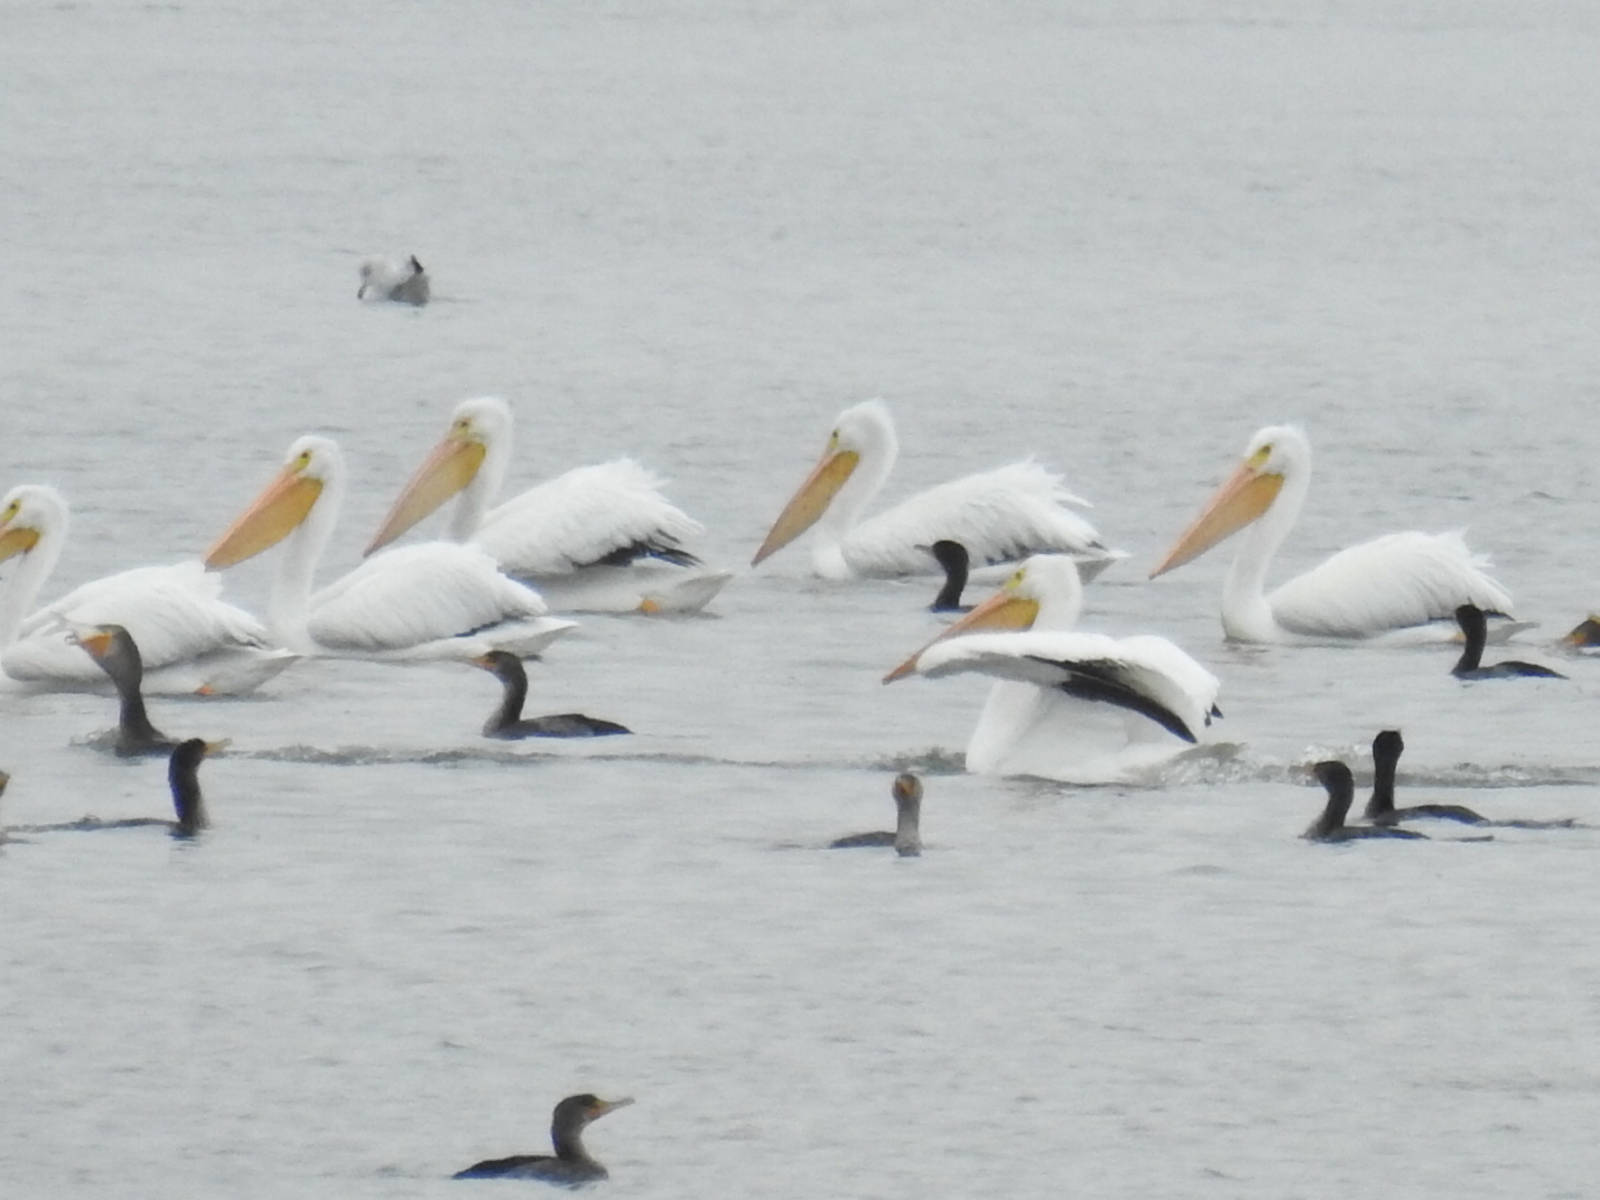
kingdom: Animalia
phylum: Chordata
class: Aves
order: Pelecaniformes
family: Pelecanidae
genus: Pelecanus
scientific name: Pelecanus erythrorhynchos
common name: American white pelican
